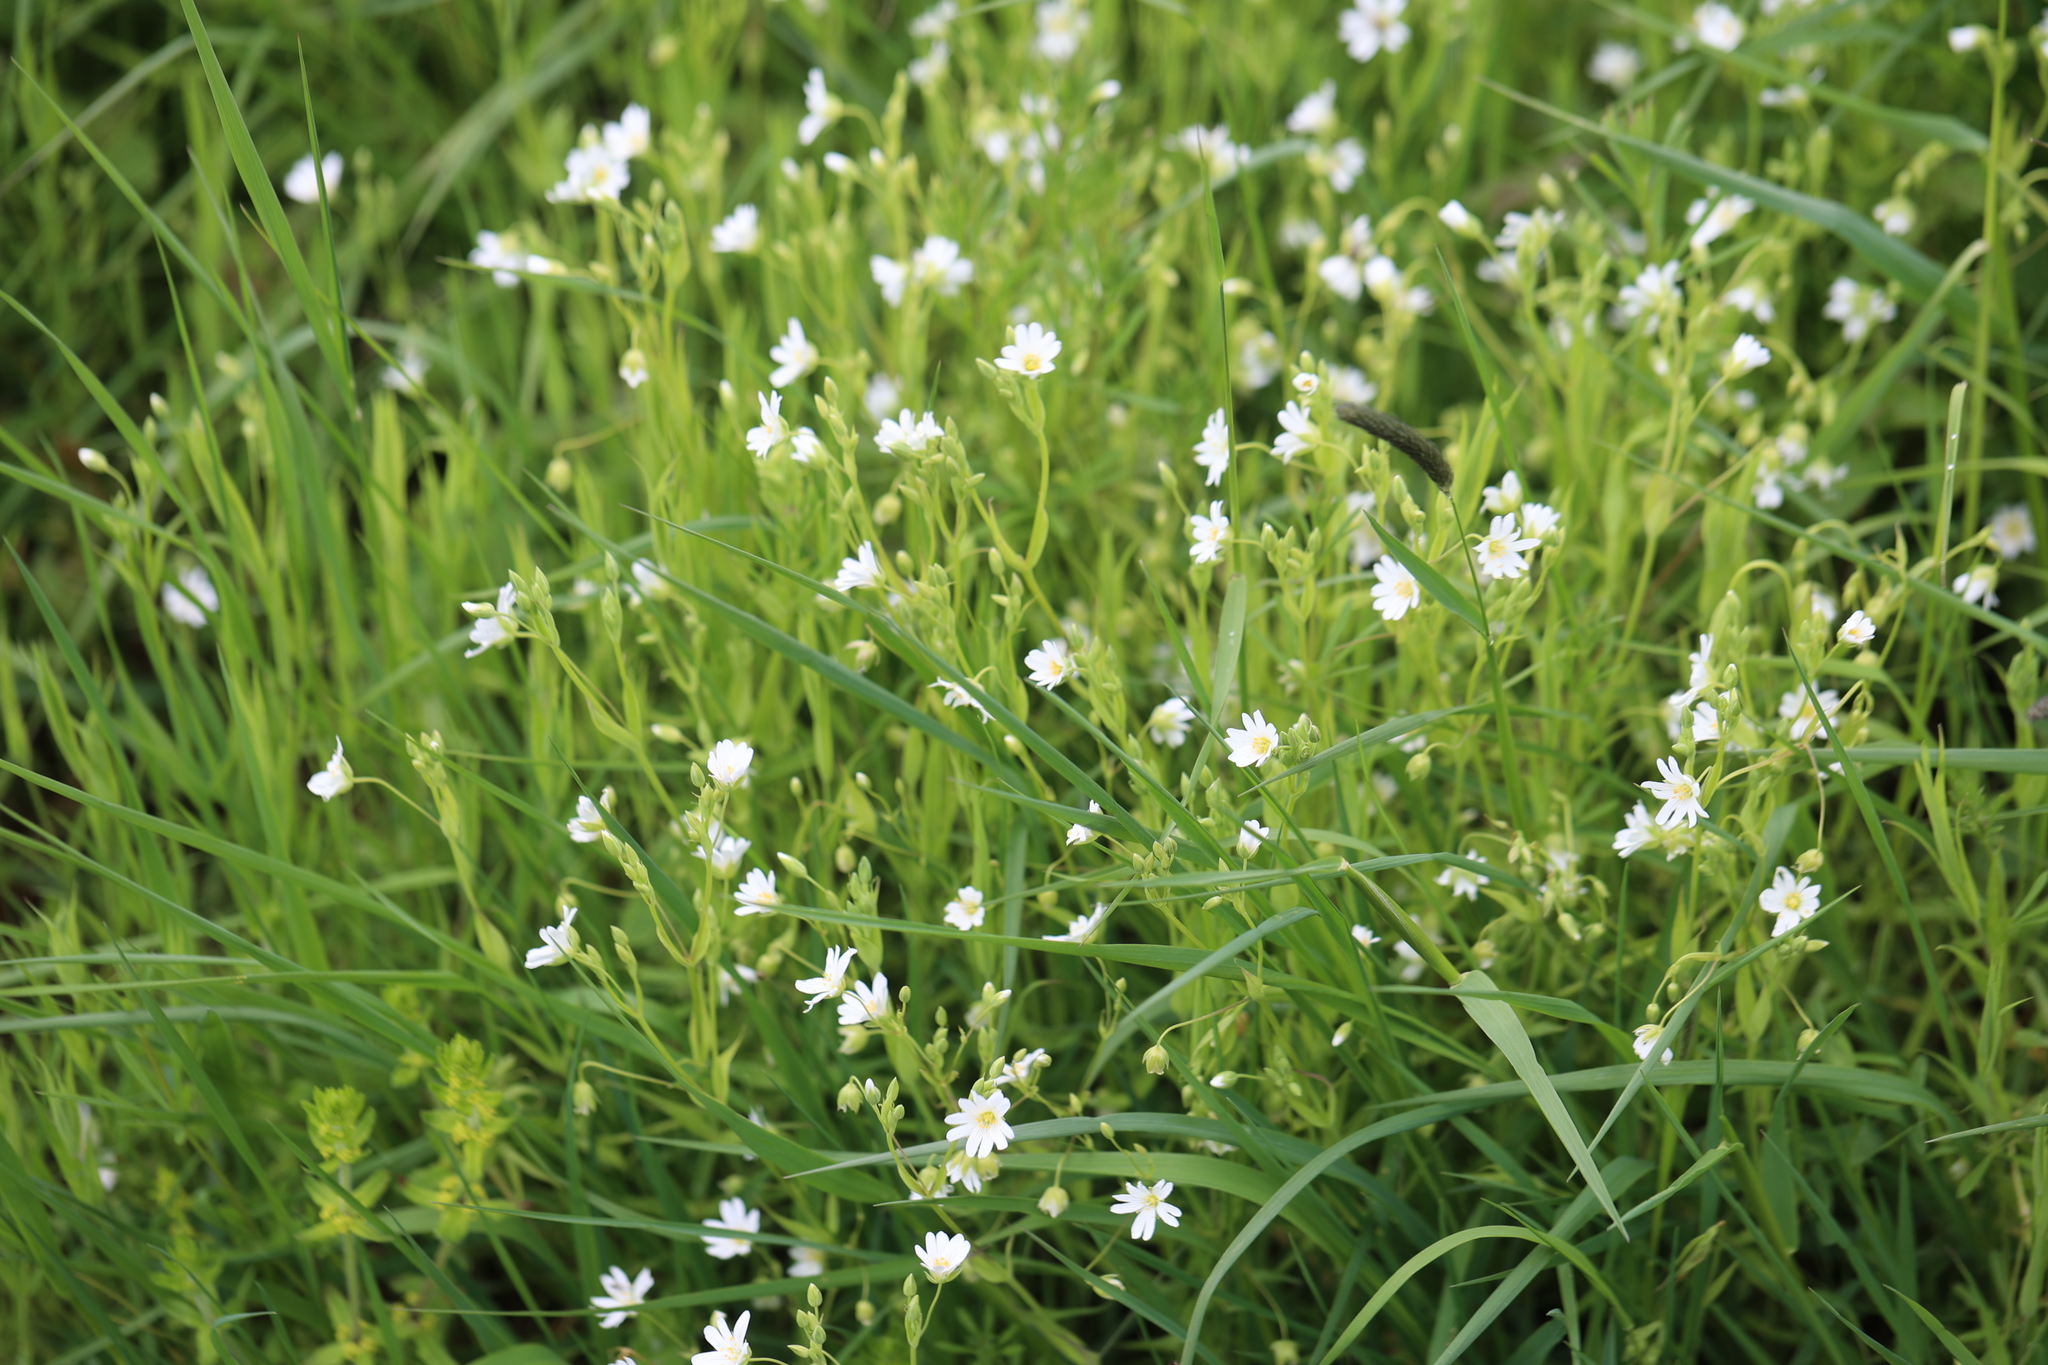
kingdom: Plantae
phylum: Tracheophyta
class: Magnoliopsida
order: Caryophyllales
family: Caryophyllaceae
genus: Rabelera
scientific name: Rabelera holostea
